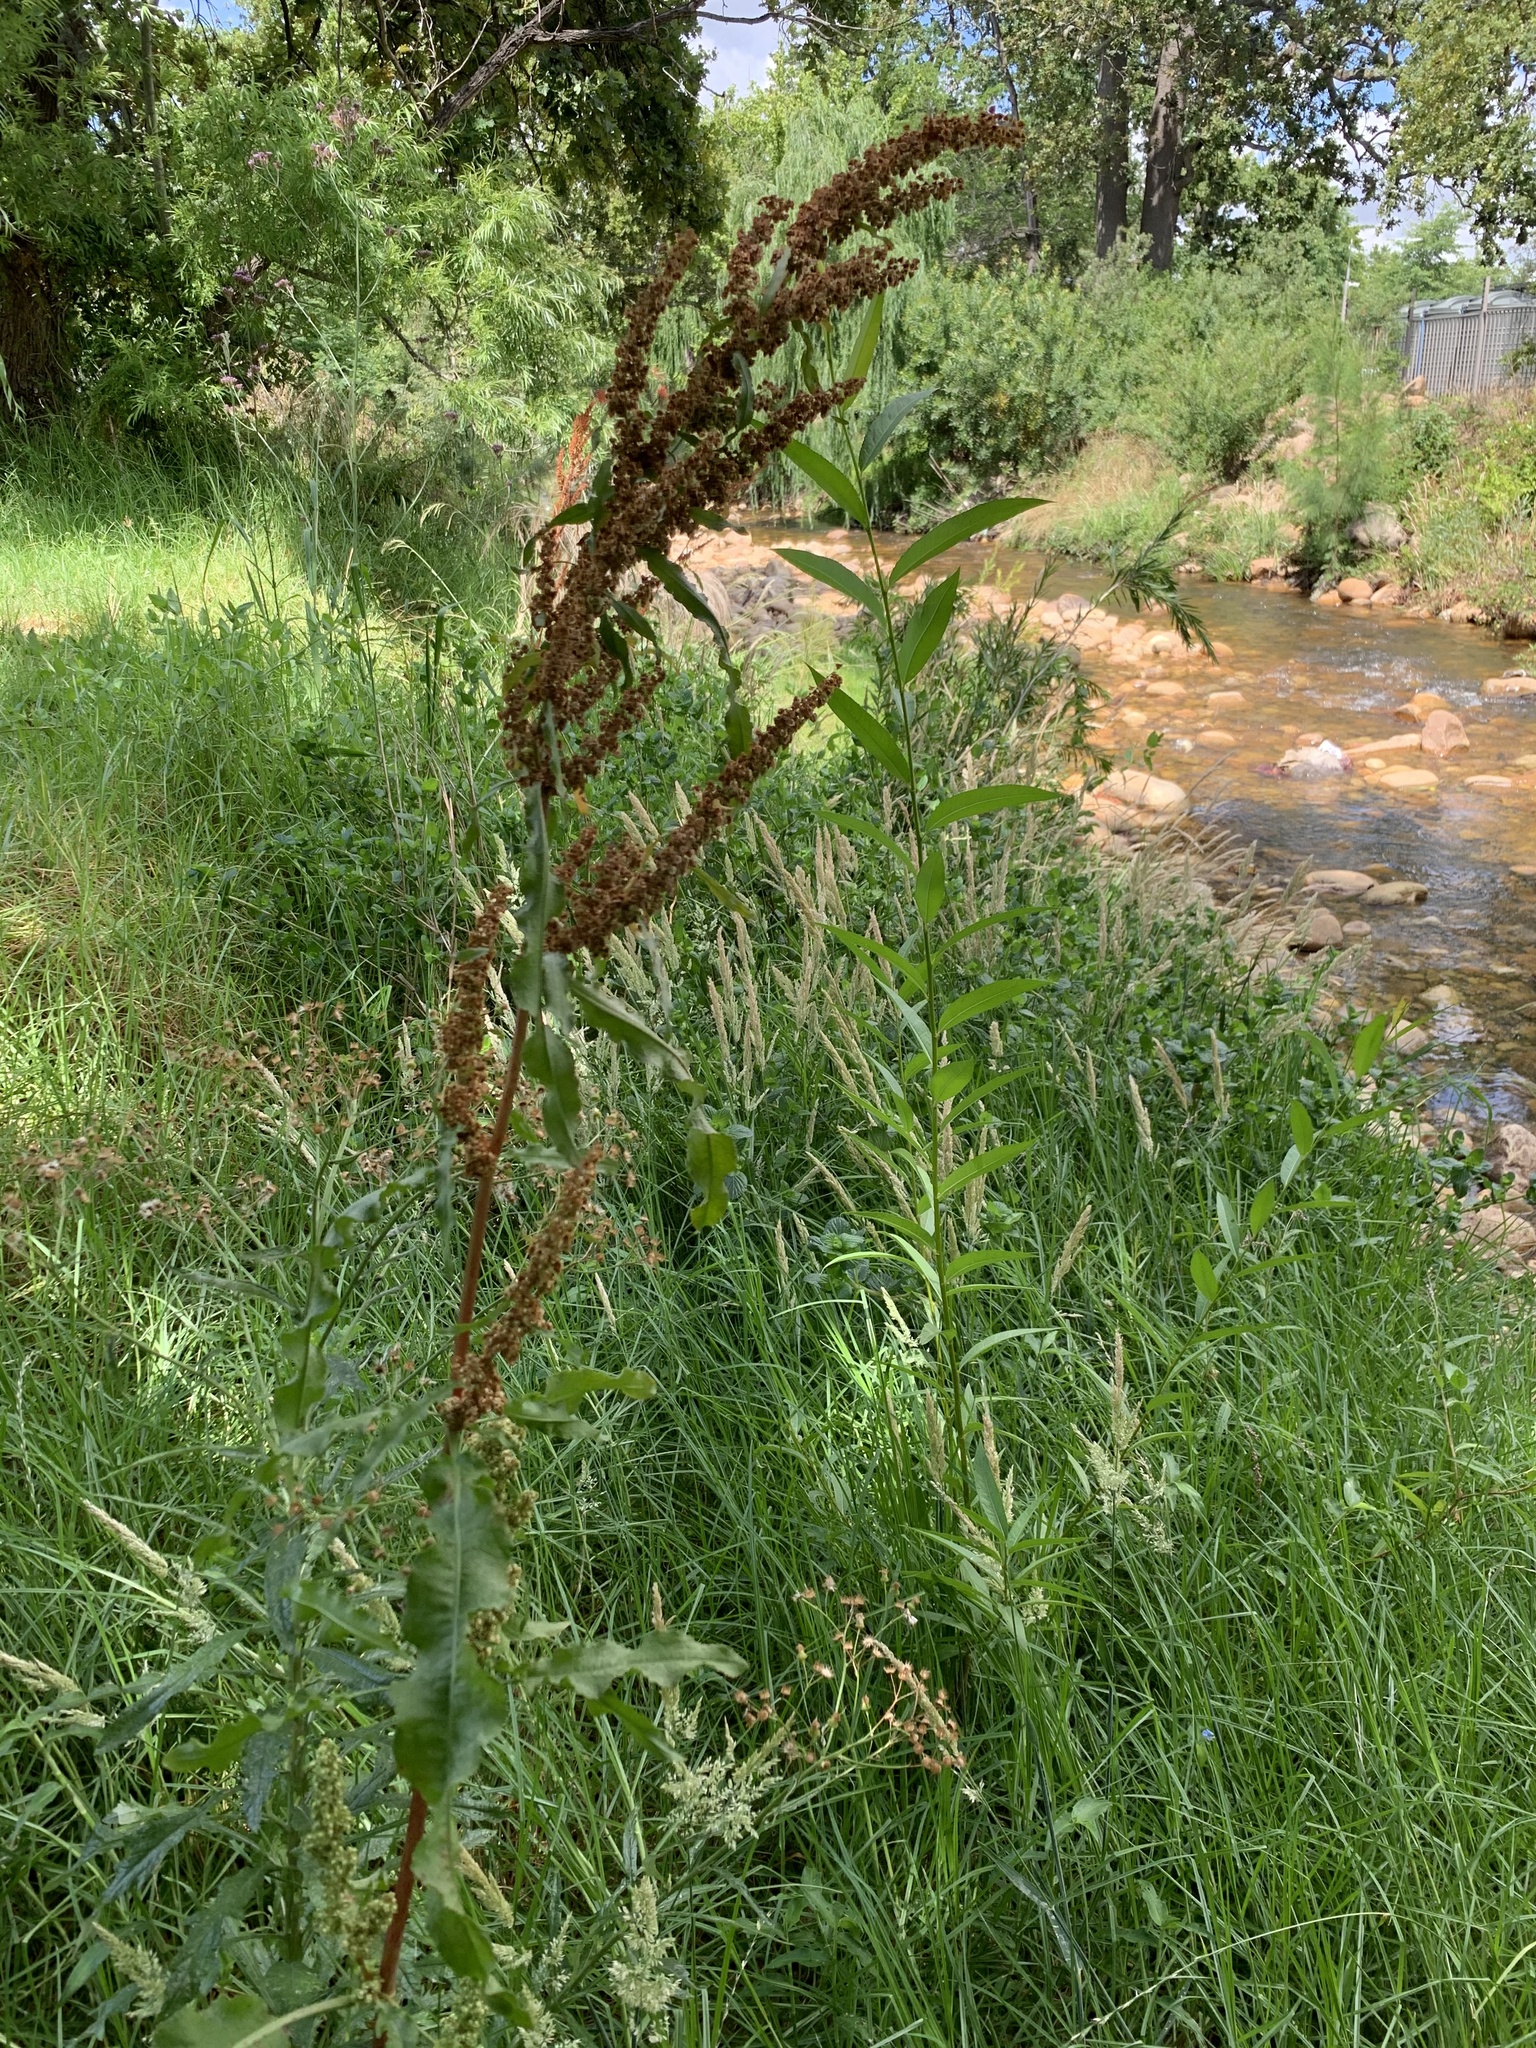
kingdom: Plantae
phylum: Tracheophyta
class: Magnoliopsida
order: Caryophyllales
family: Polygonaceae
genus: Rumex
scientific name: Rumex crispus
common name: Curled dock
